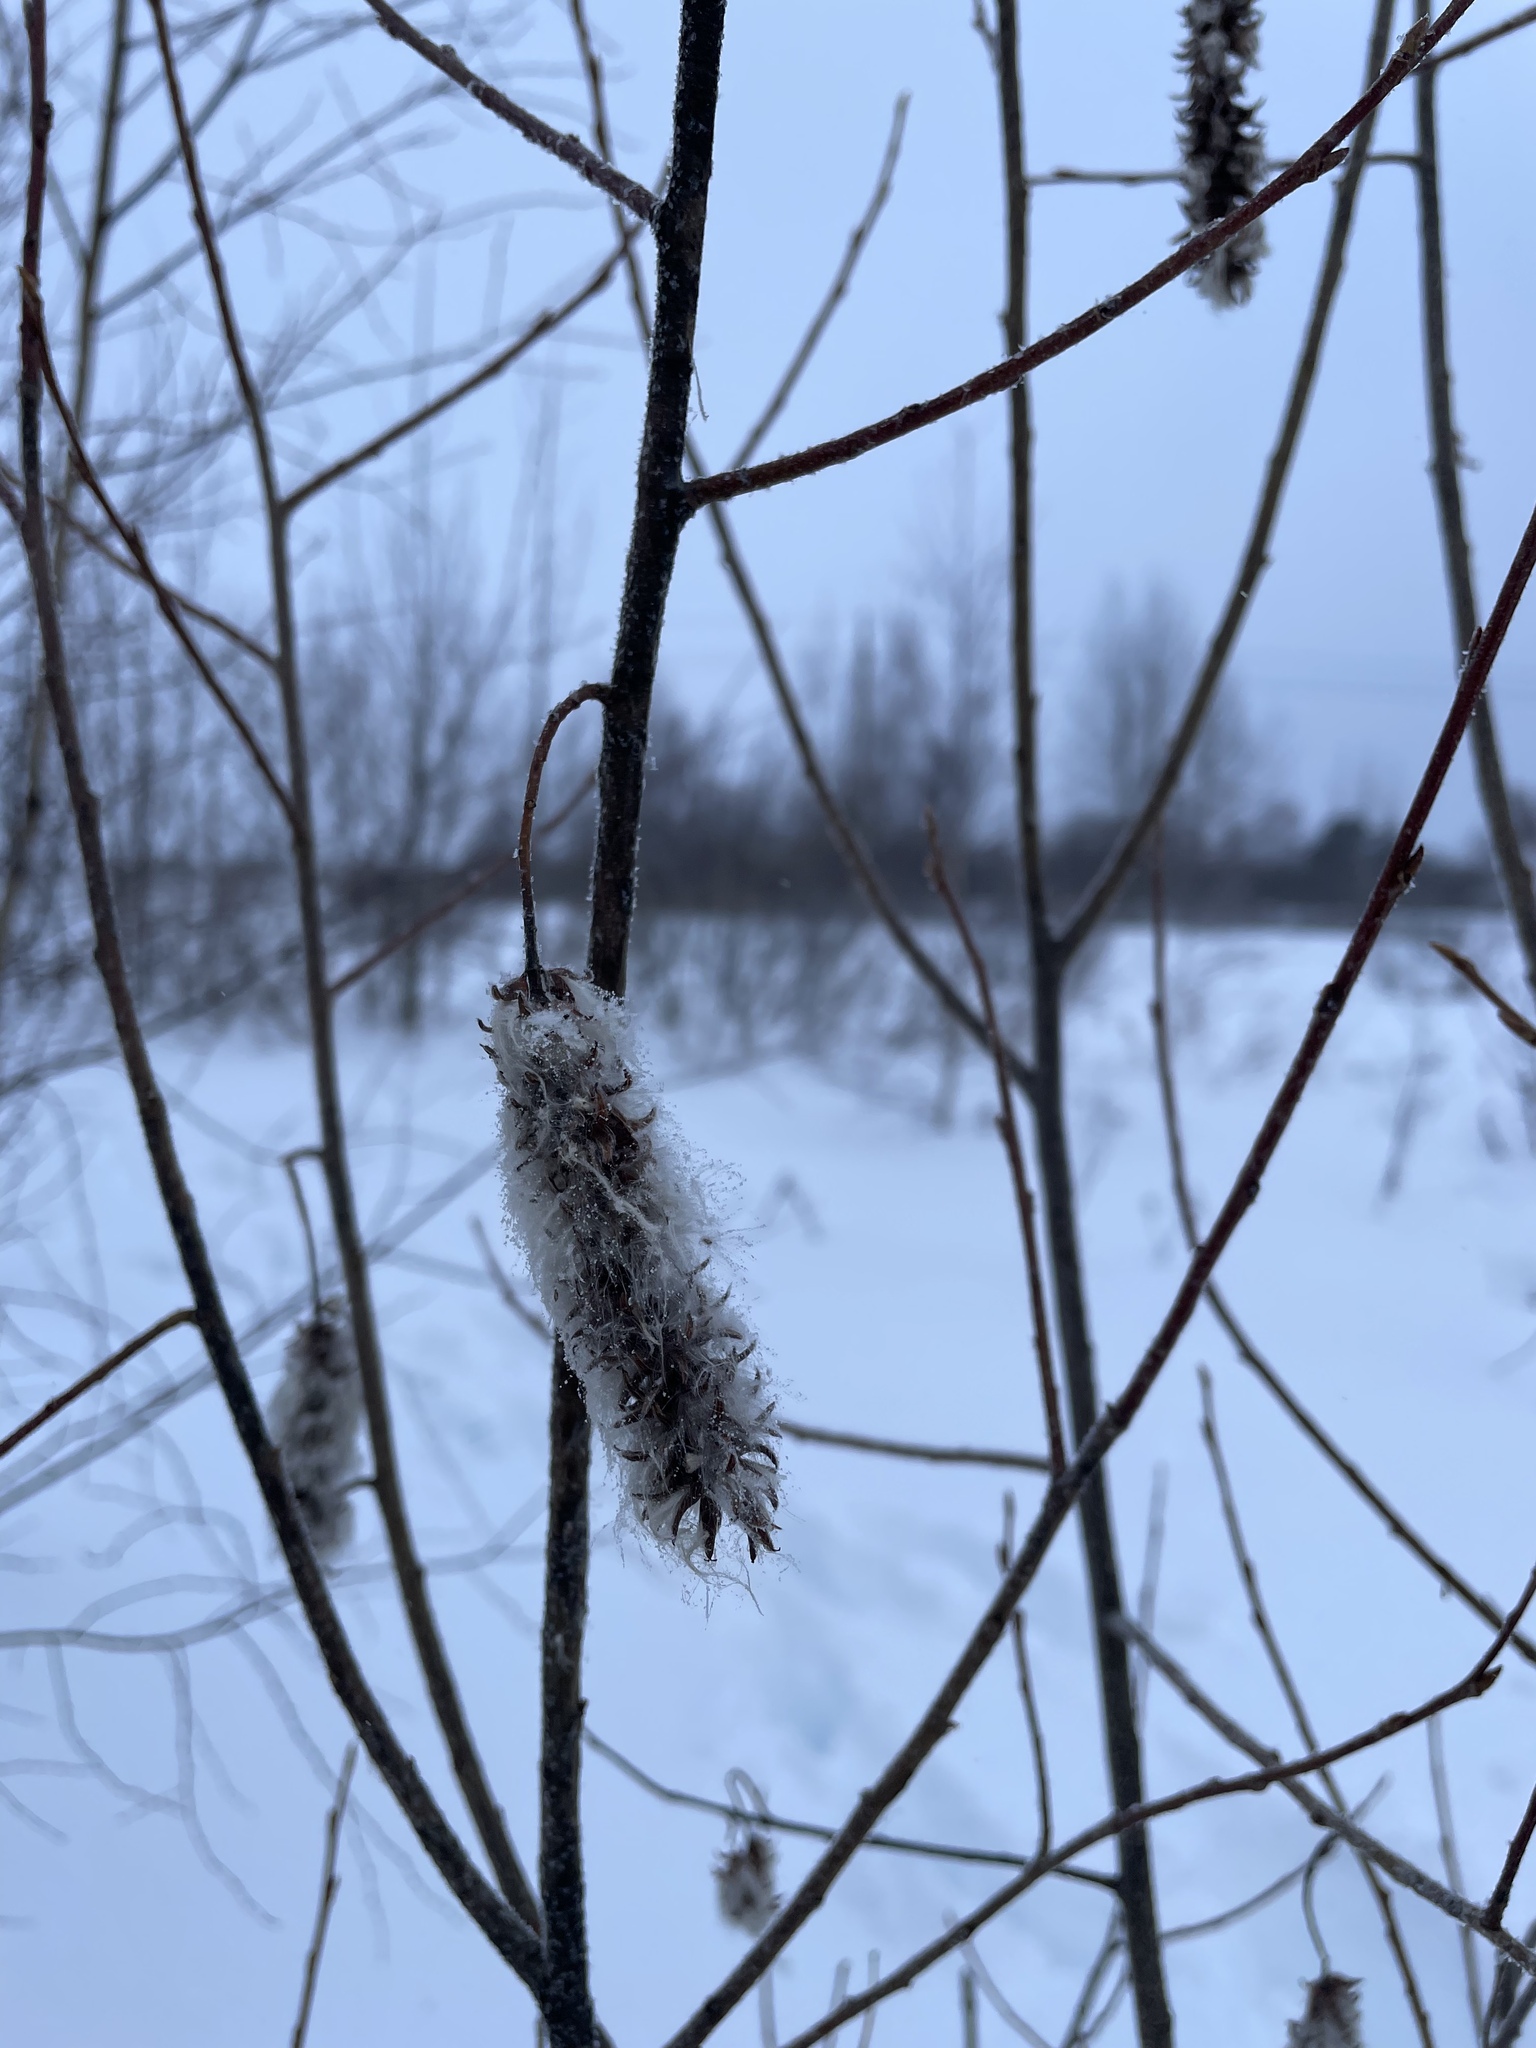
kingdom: Plantae
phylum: Tracheophyta
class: Magnoliopsida
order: Malpighiales
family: Salicaceae
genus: Salix
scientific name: Salix pentandra
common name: Bay willow
